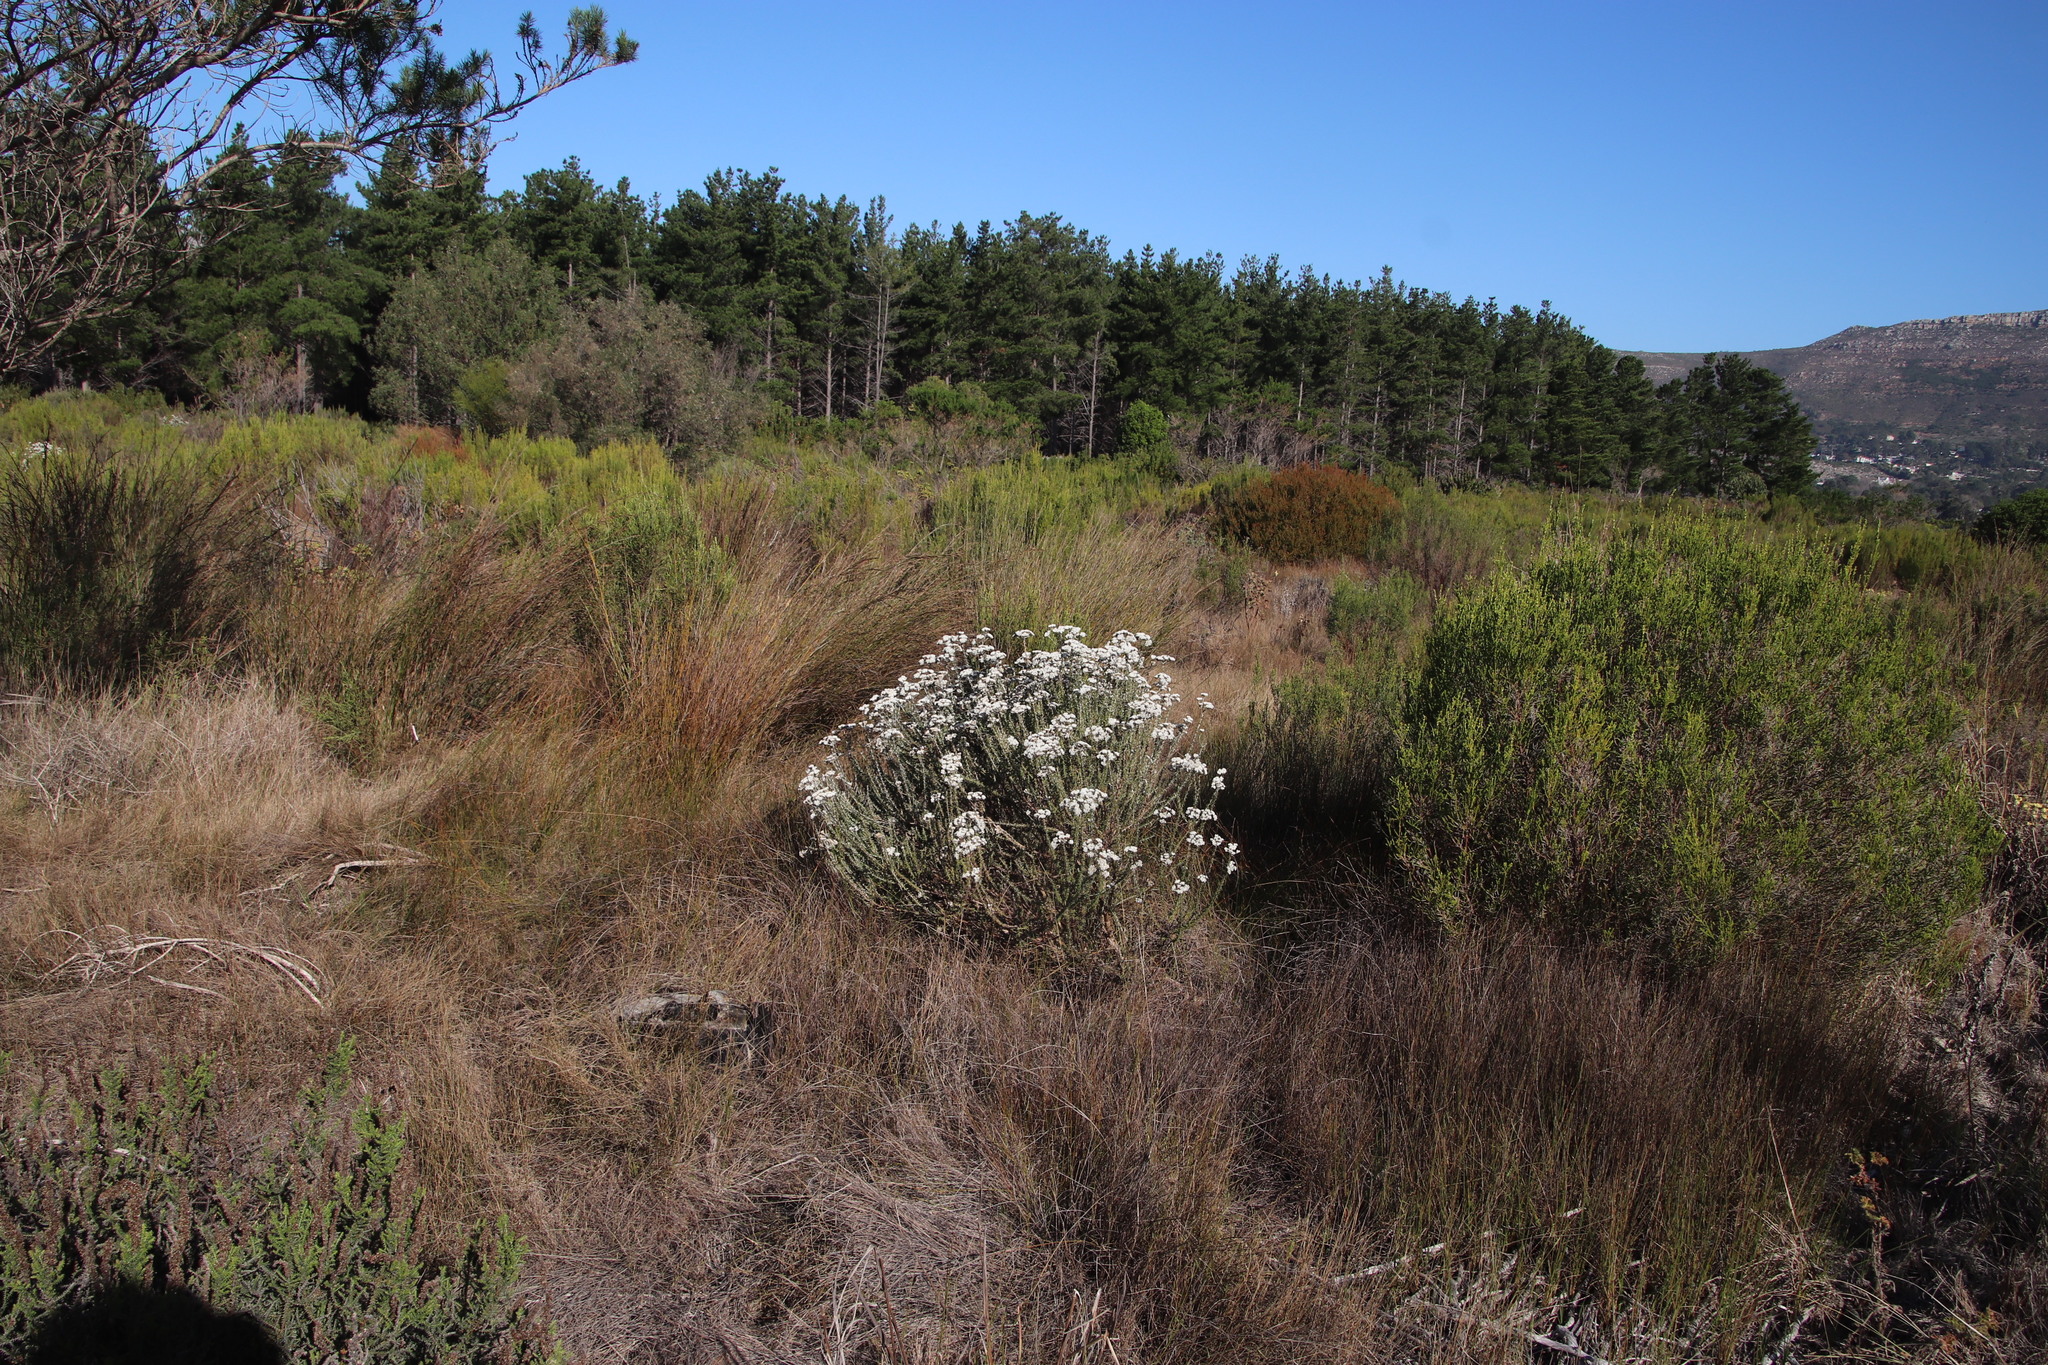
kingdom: Plantae
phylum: Tracheophyta
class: Magnoliopsida
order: Asterales
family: Asteraceae
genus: Metalasia
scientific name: Metalasia densa
